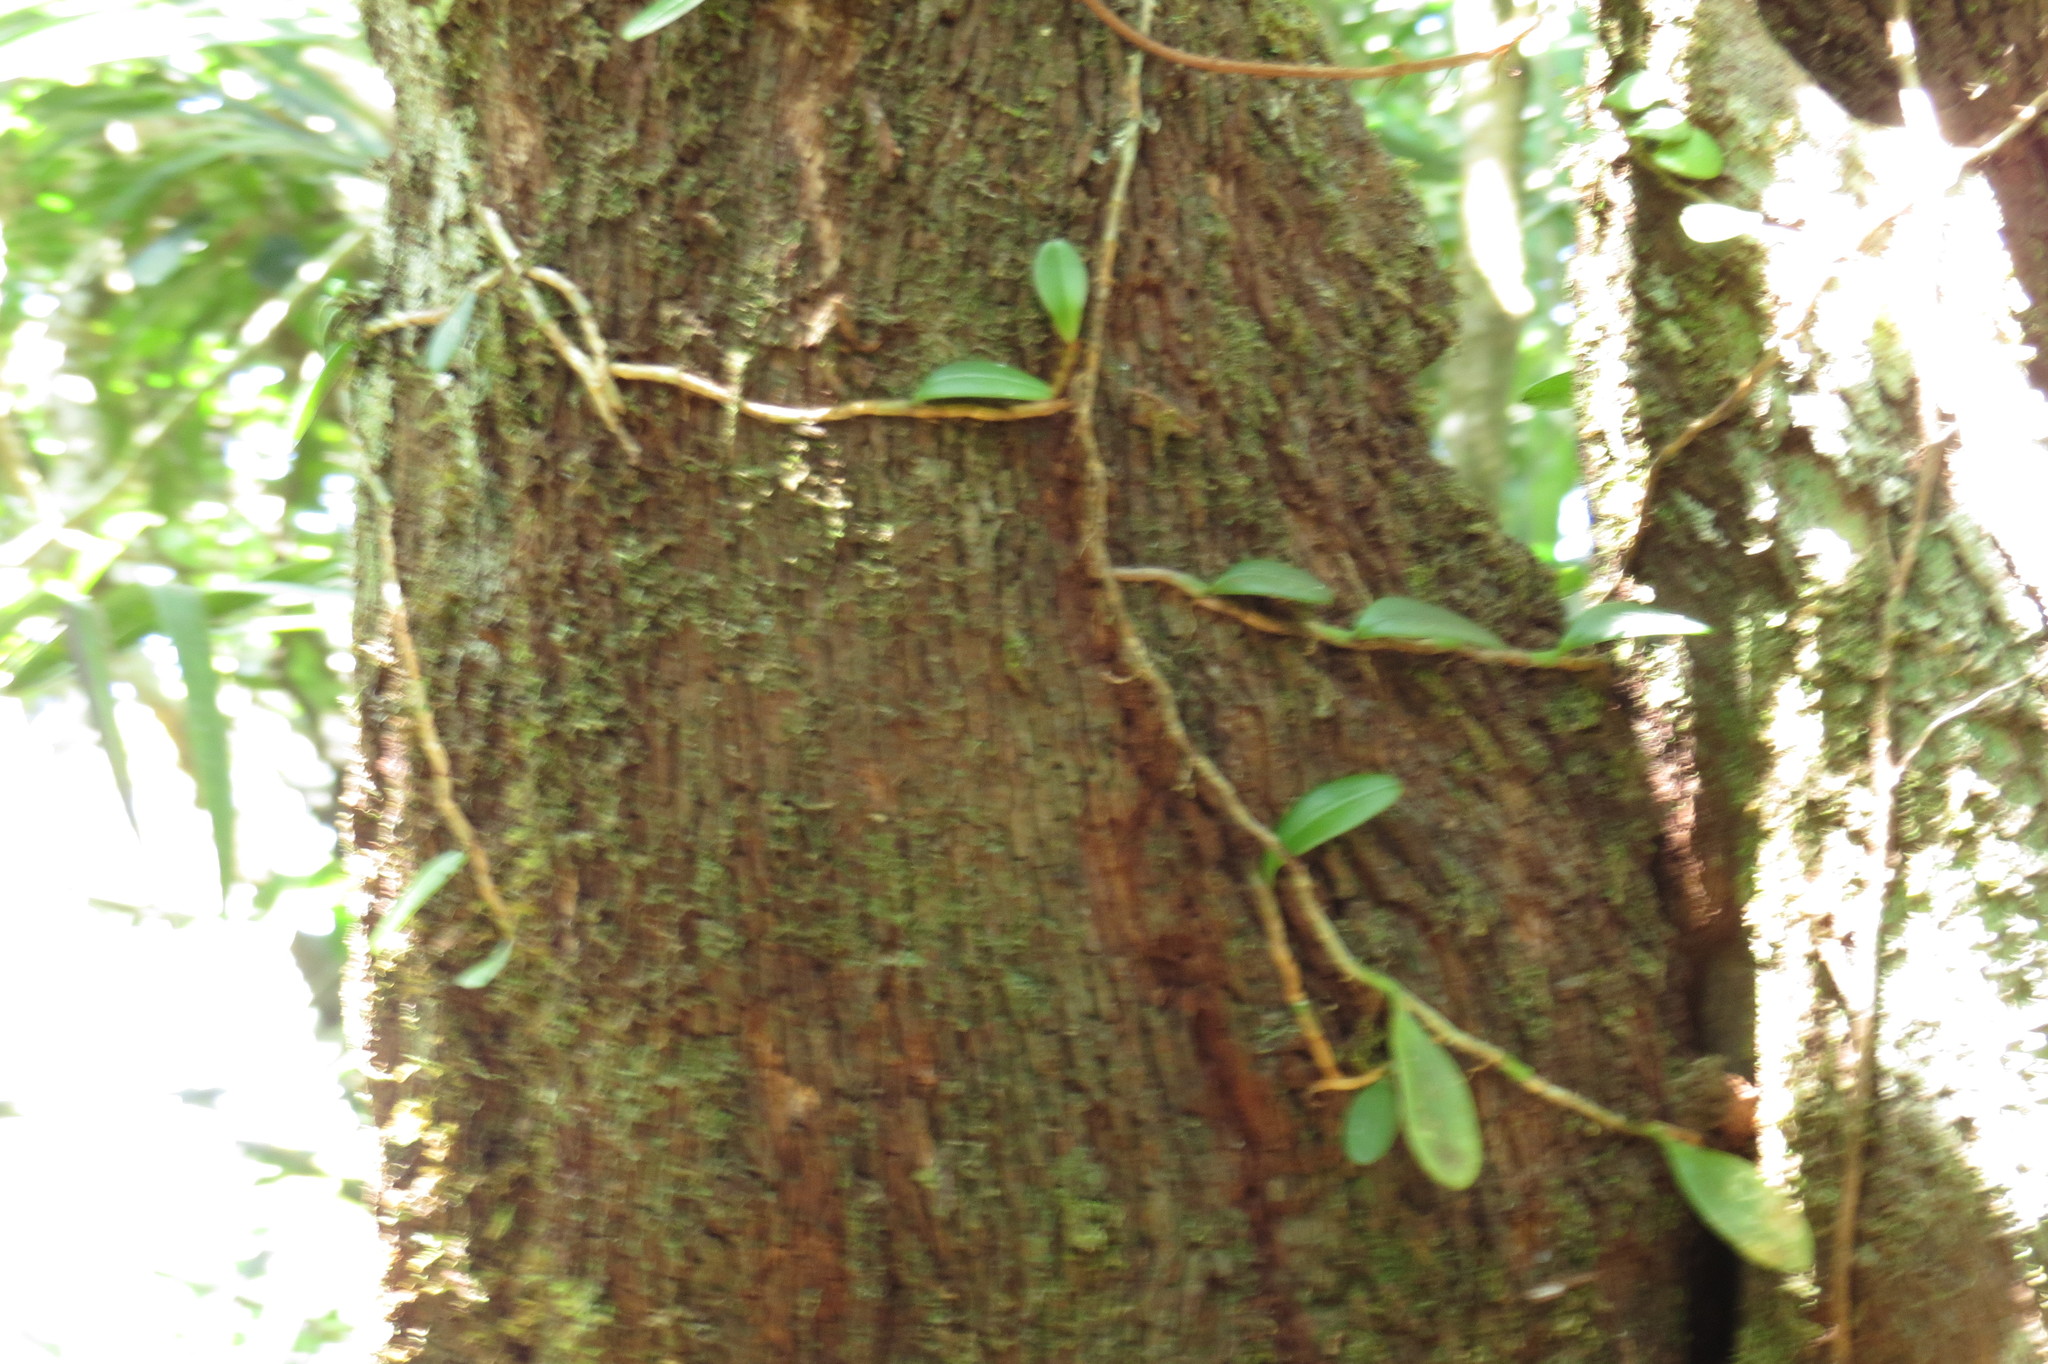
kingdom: Plantae
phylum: Tracheophyta
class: Magnoliopsida
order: Ericales
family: Ericaceae
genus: Styphelia
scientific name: Styphelia malayana
